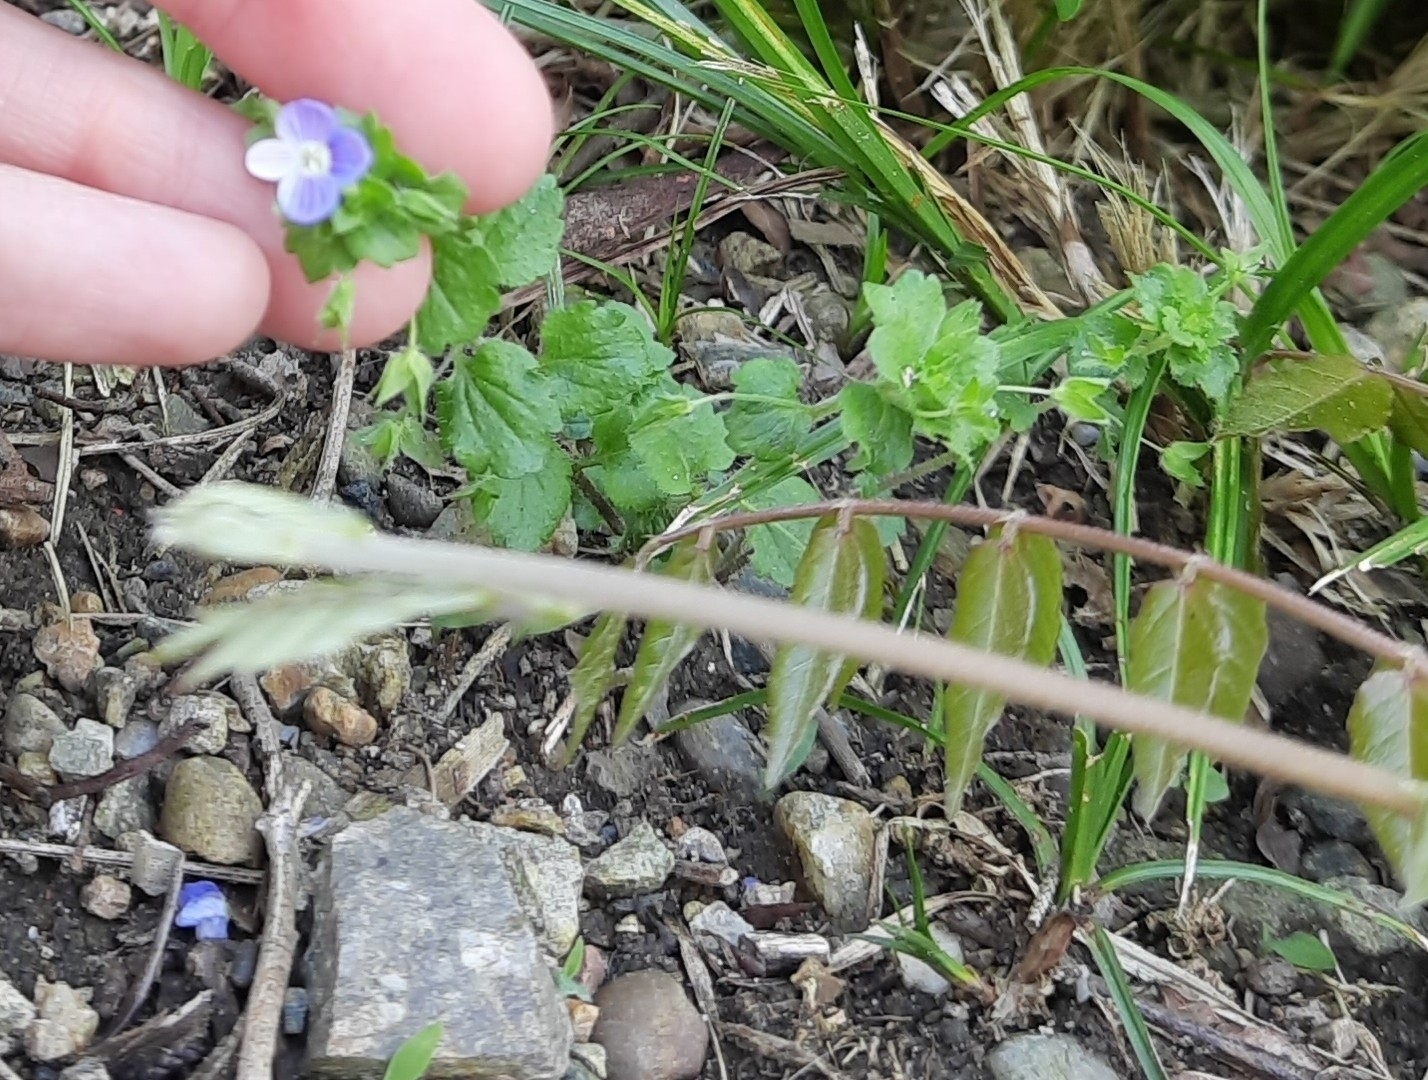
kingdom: Plantae
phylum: Tracheophyta
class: Magnoliopsida
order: Lamiales
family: Plantaginaceae
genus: Veronica
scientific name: Veronica persica
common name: Common field-speedwell
